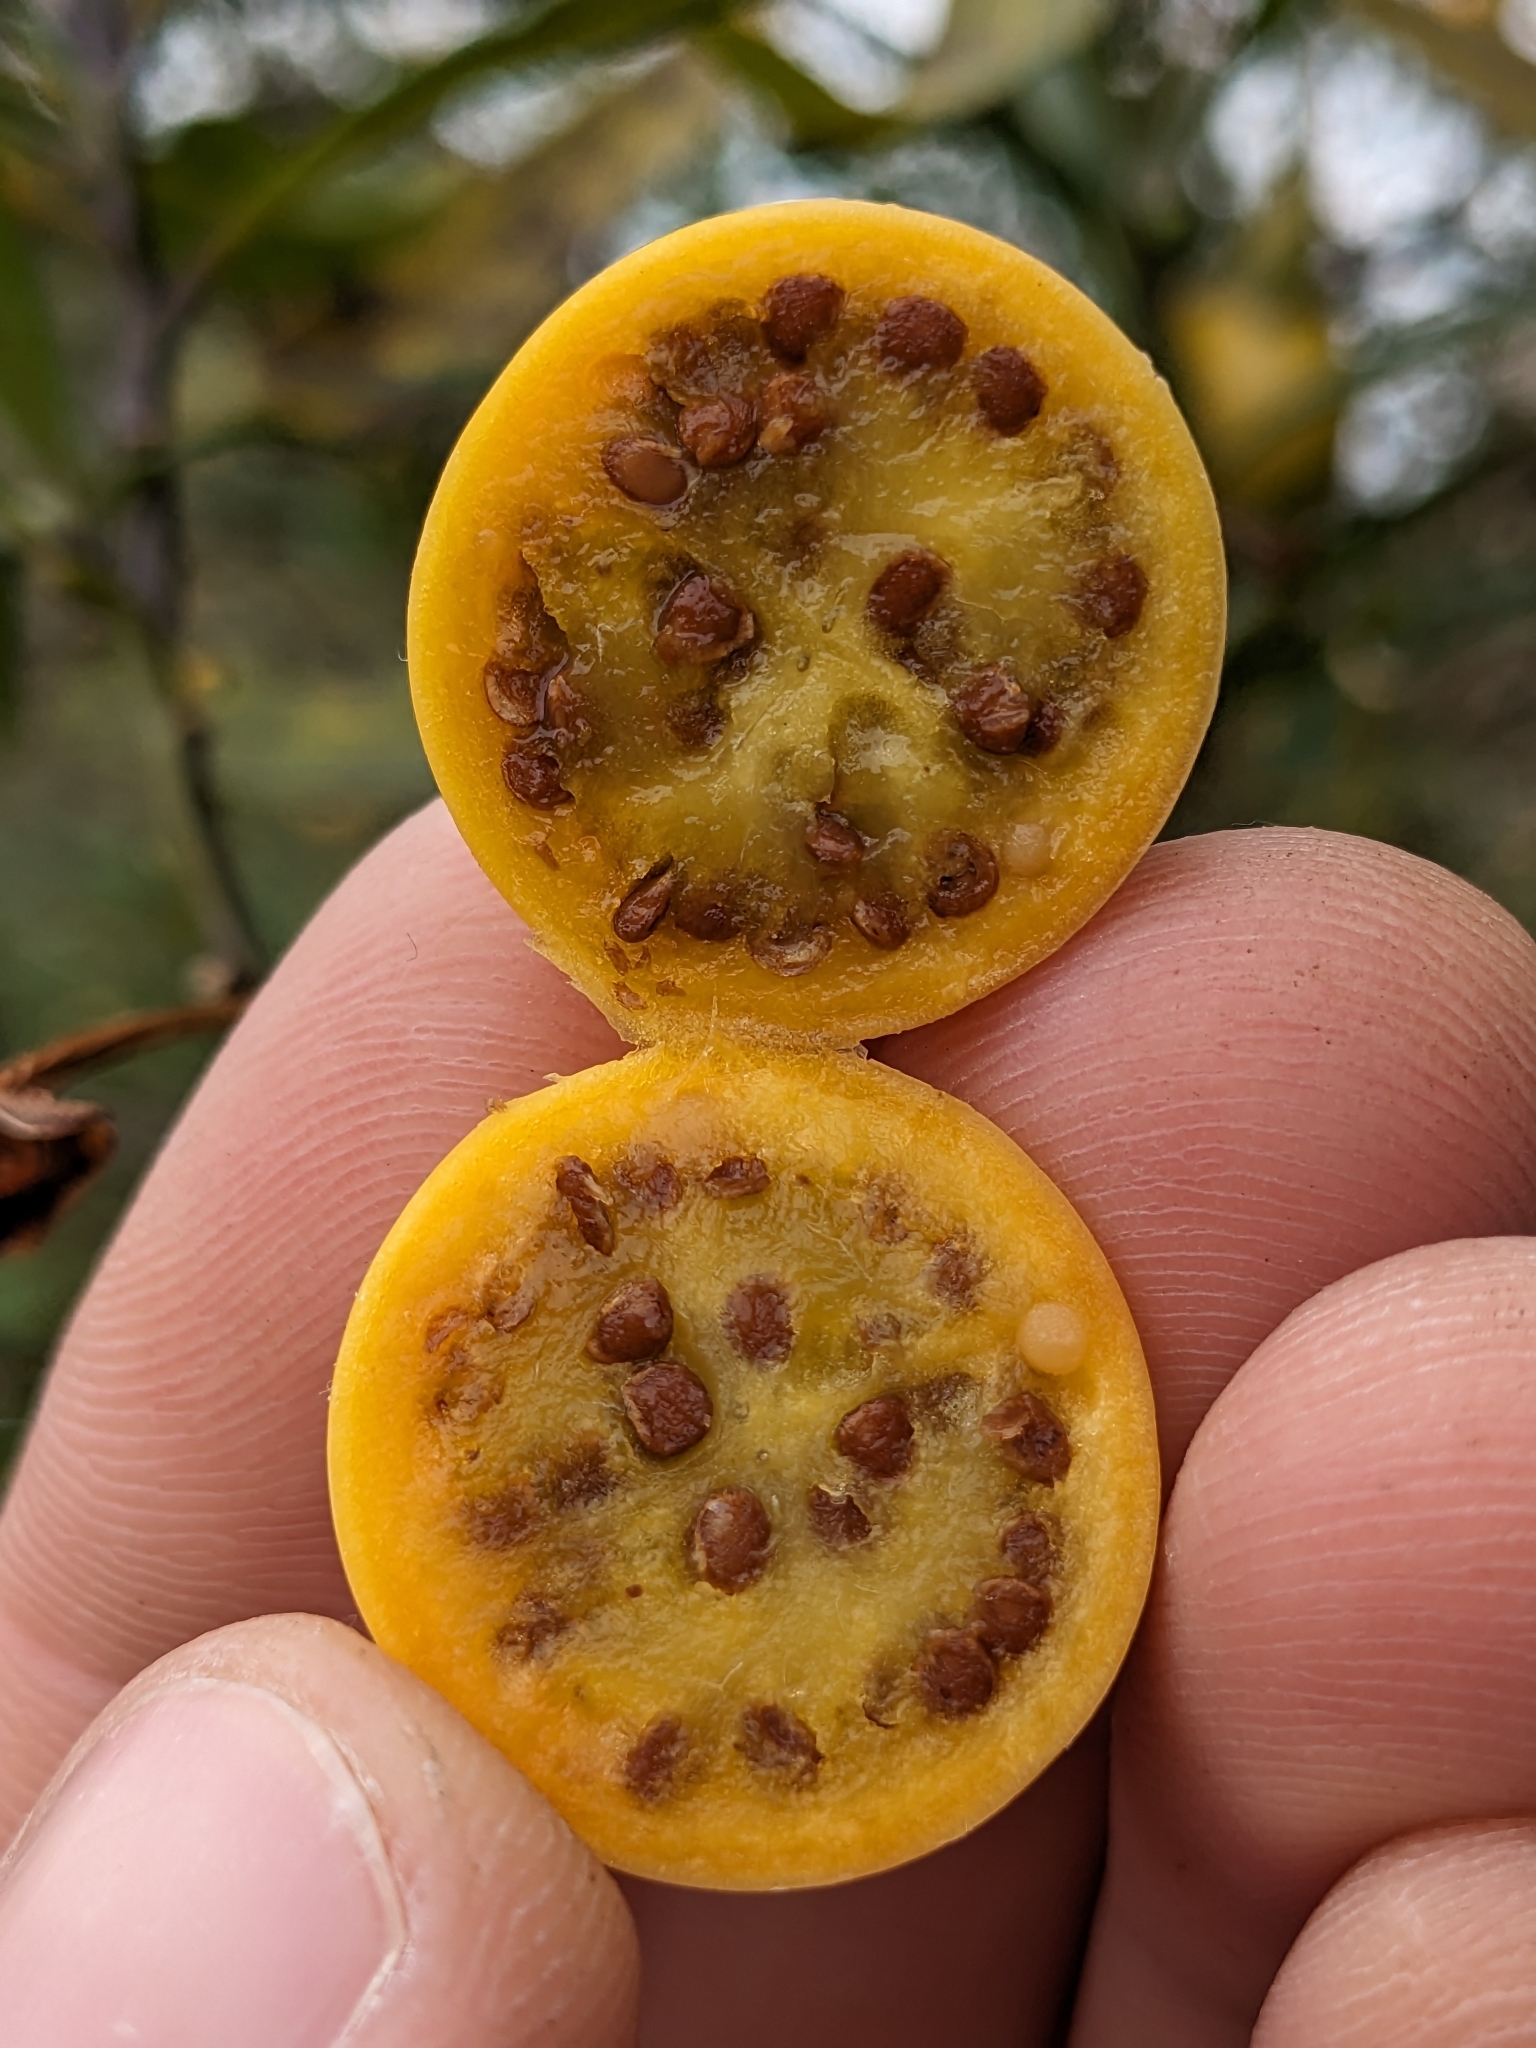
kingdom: Plantae
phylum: Tracheophyta
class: Magnoliopsida
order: Solanales
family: Solanaceae
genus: Solanum
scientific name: Solanum laciniatum
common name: Kangaroo-apple
